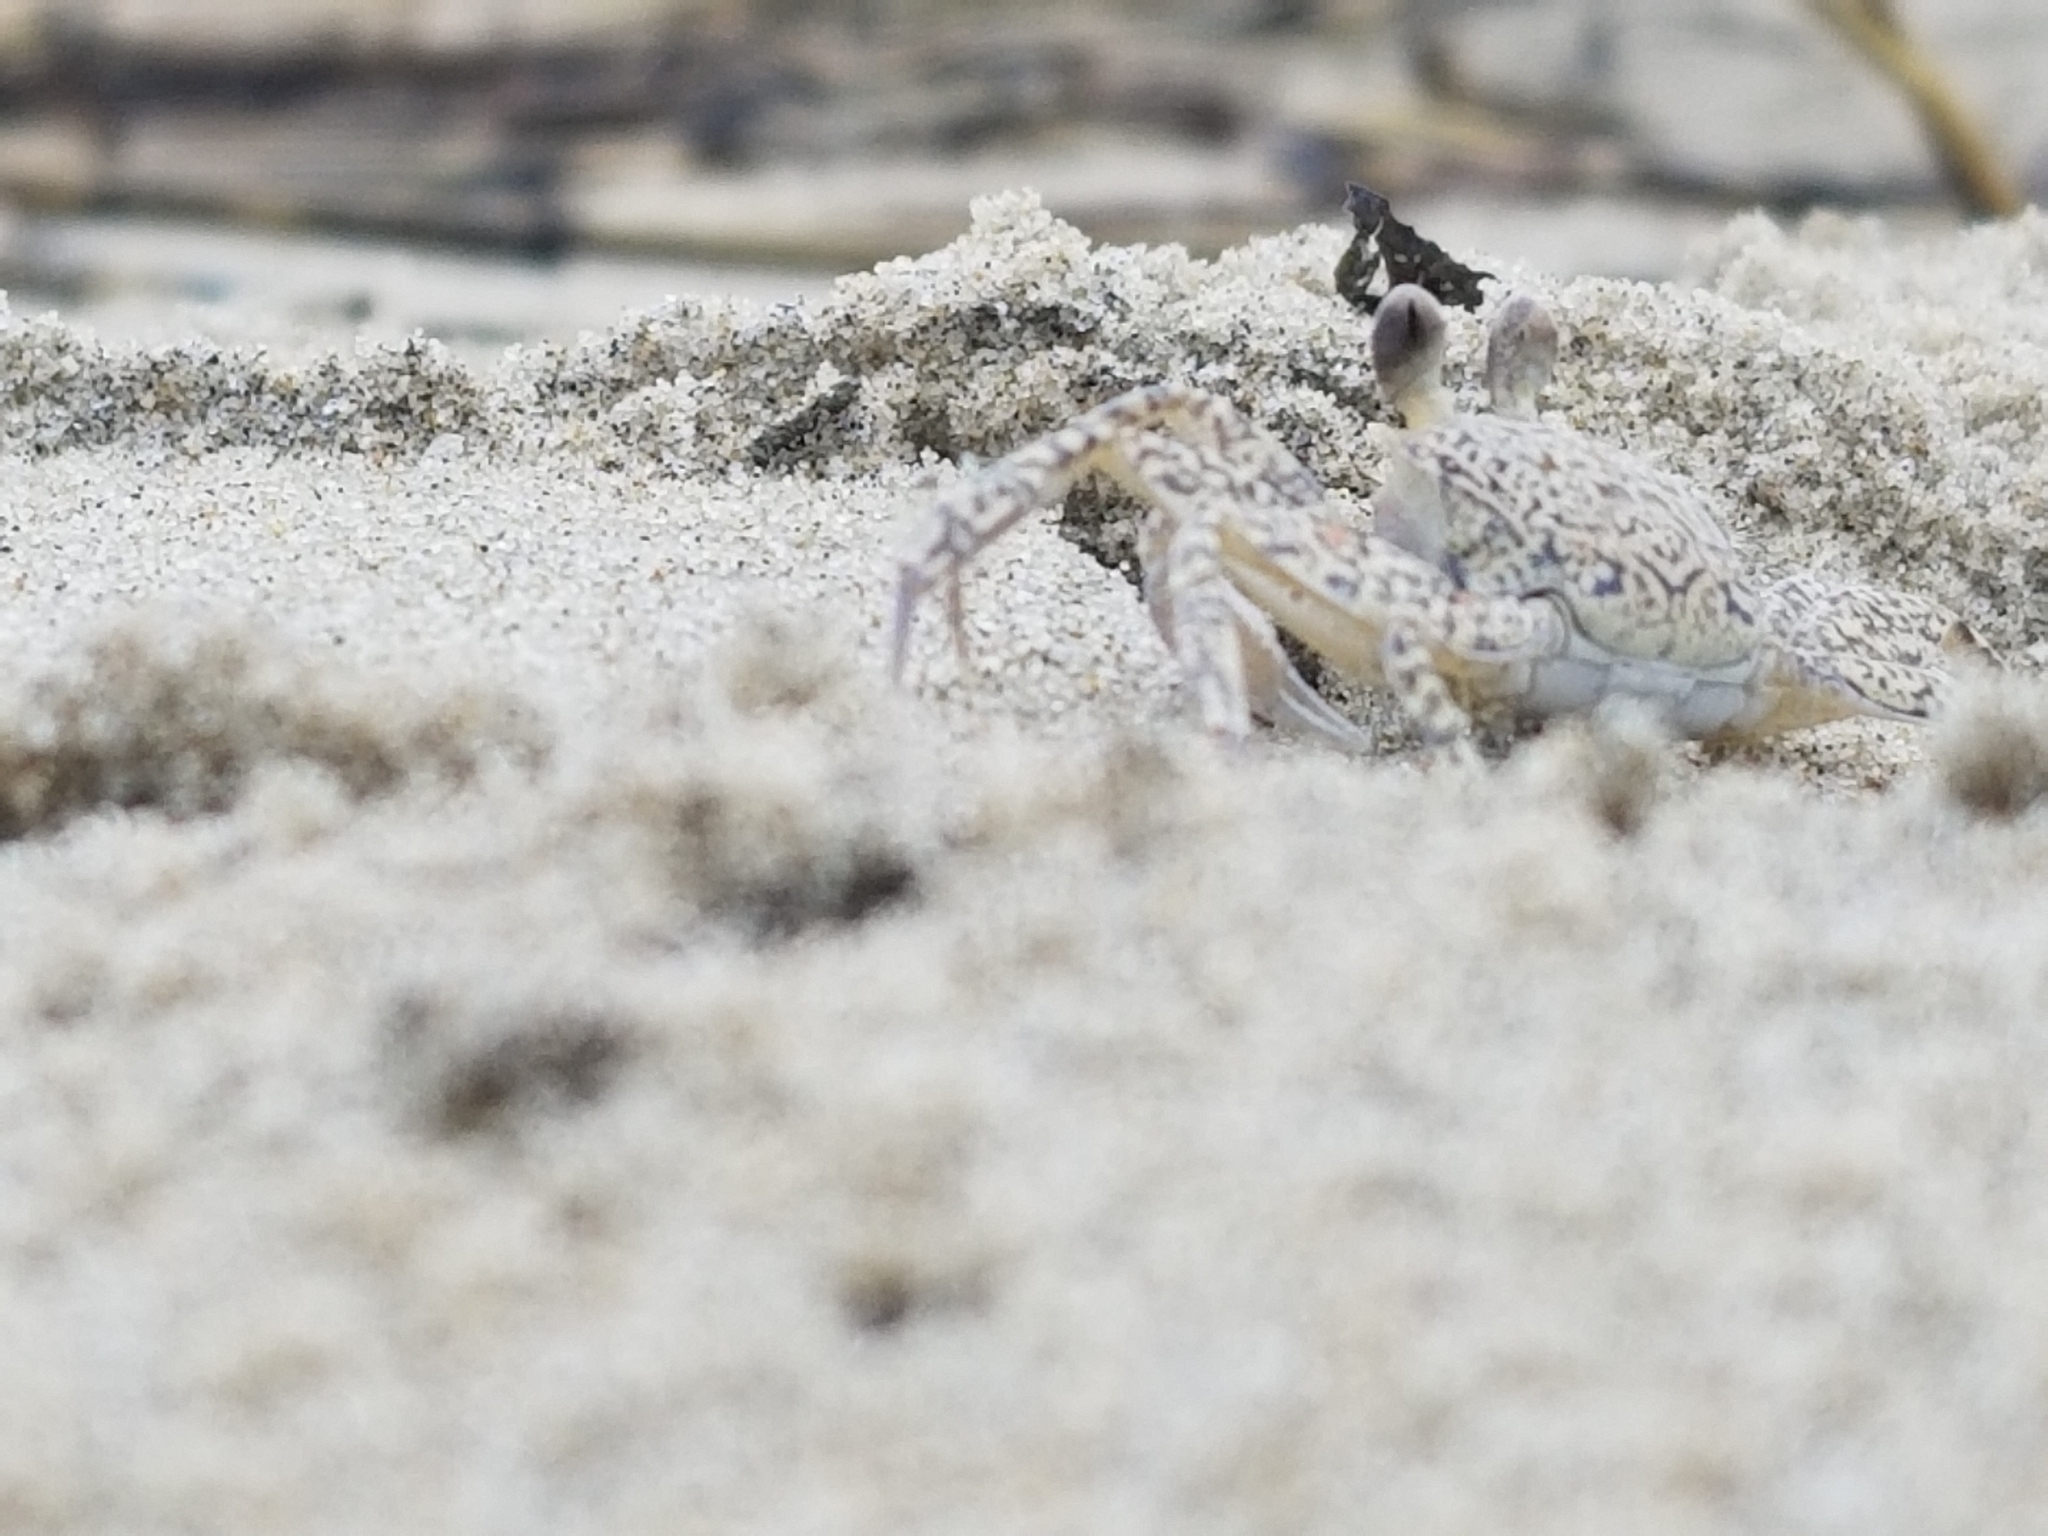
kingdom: Animalia
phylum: Arthropoda
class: Malacostraca
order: Decapoda
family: Ocypodidae
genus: Ocypode
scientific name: Ocypode quadrata
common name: Ghost crab
